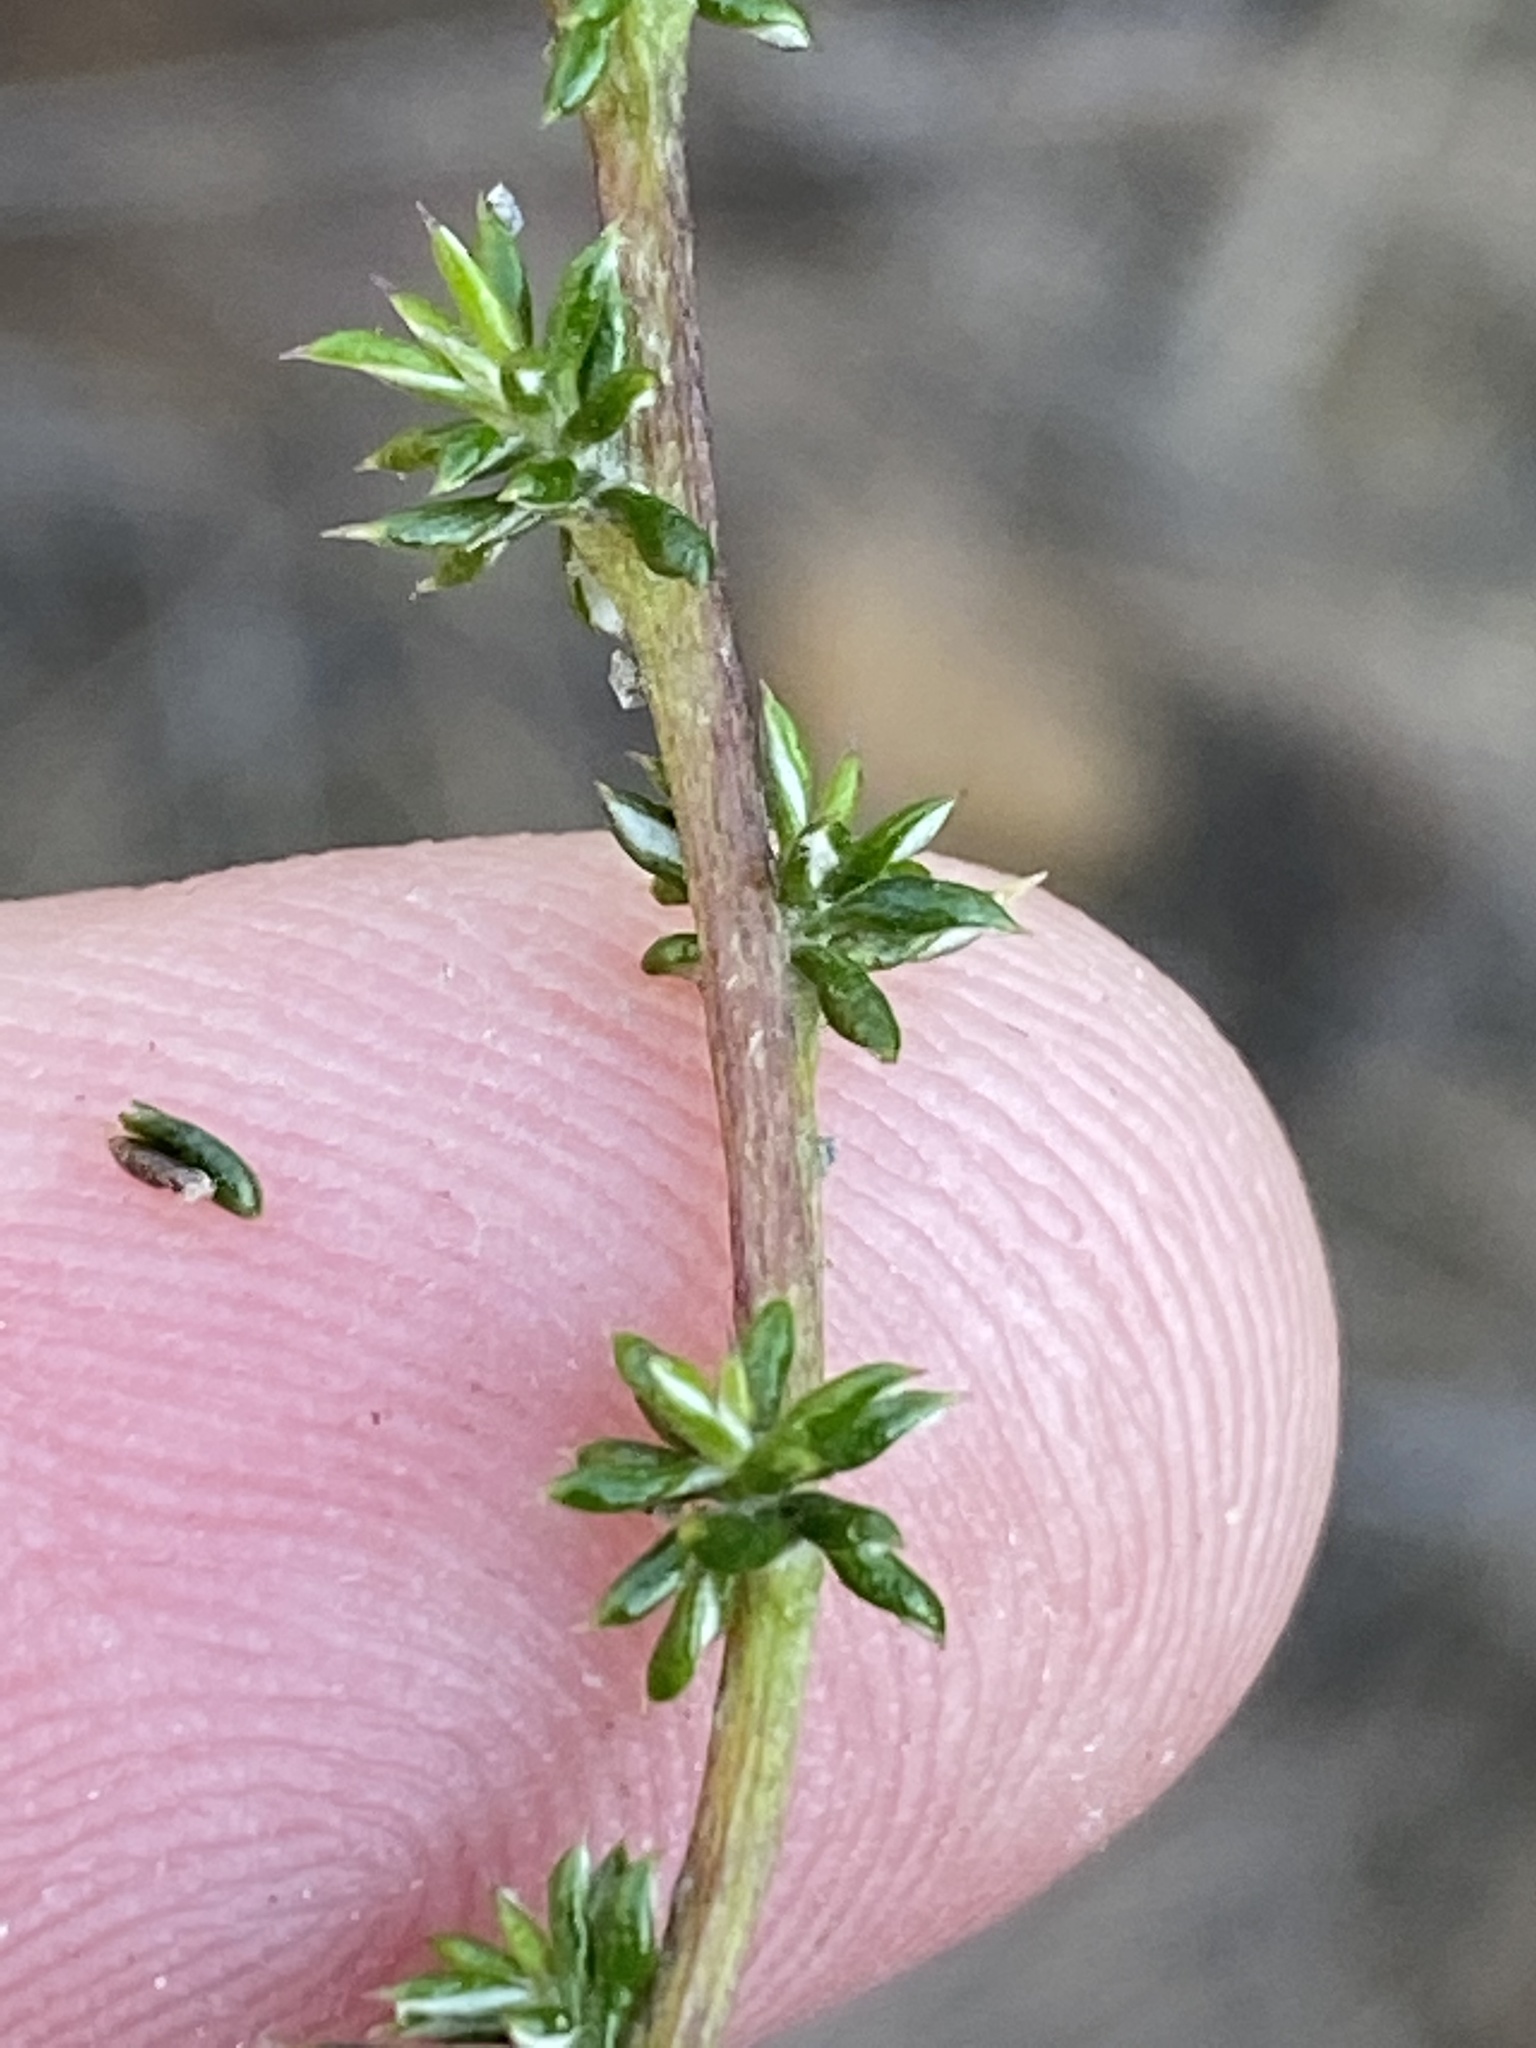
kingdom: Plantae
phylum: Tracheophyta
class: Magnoliopsida
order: Asterales
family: Asteraceae
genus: Metalasia
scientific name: Metalasia densa
